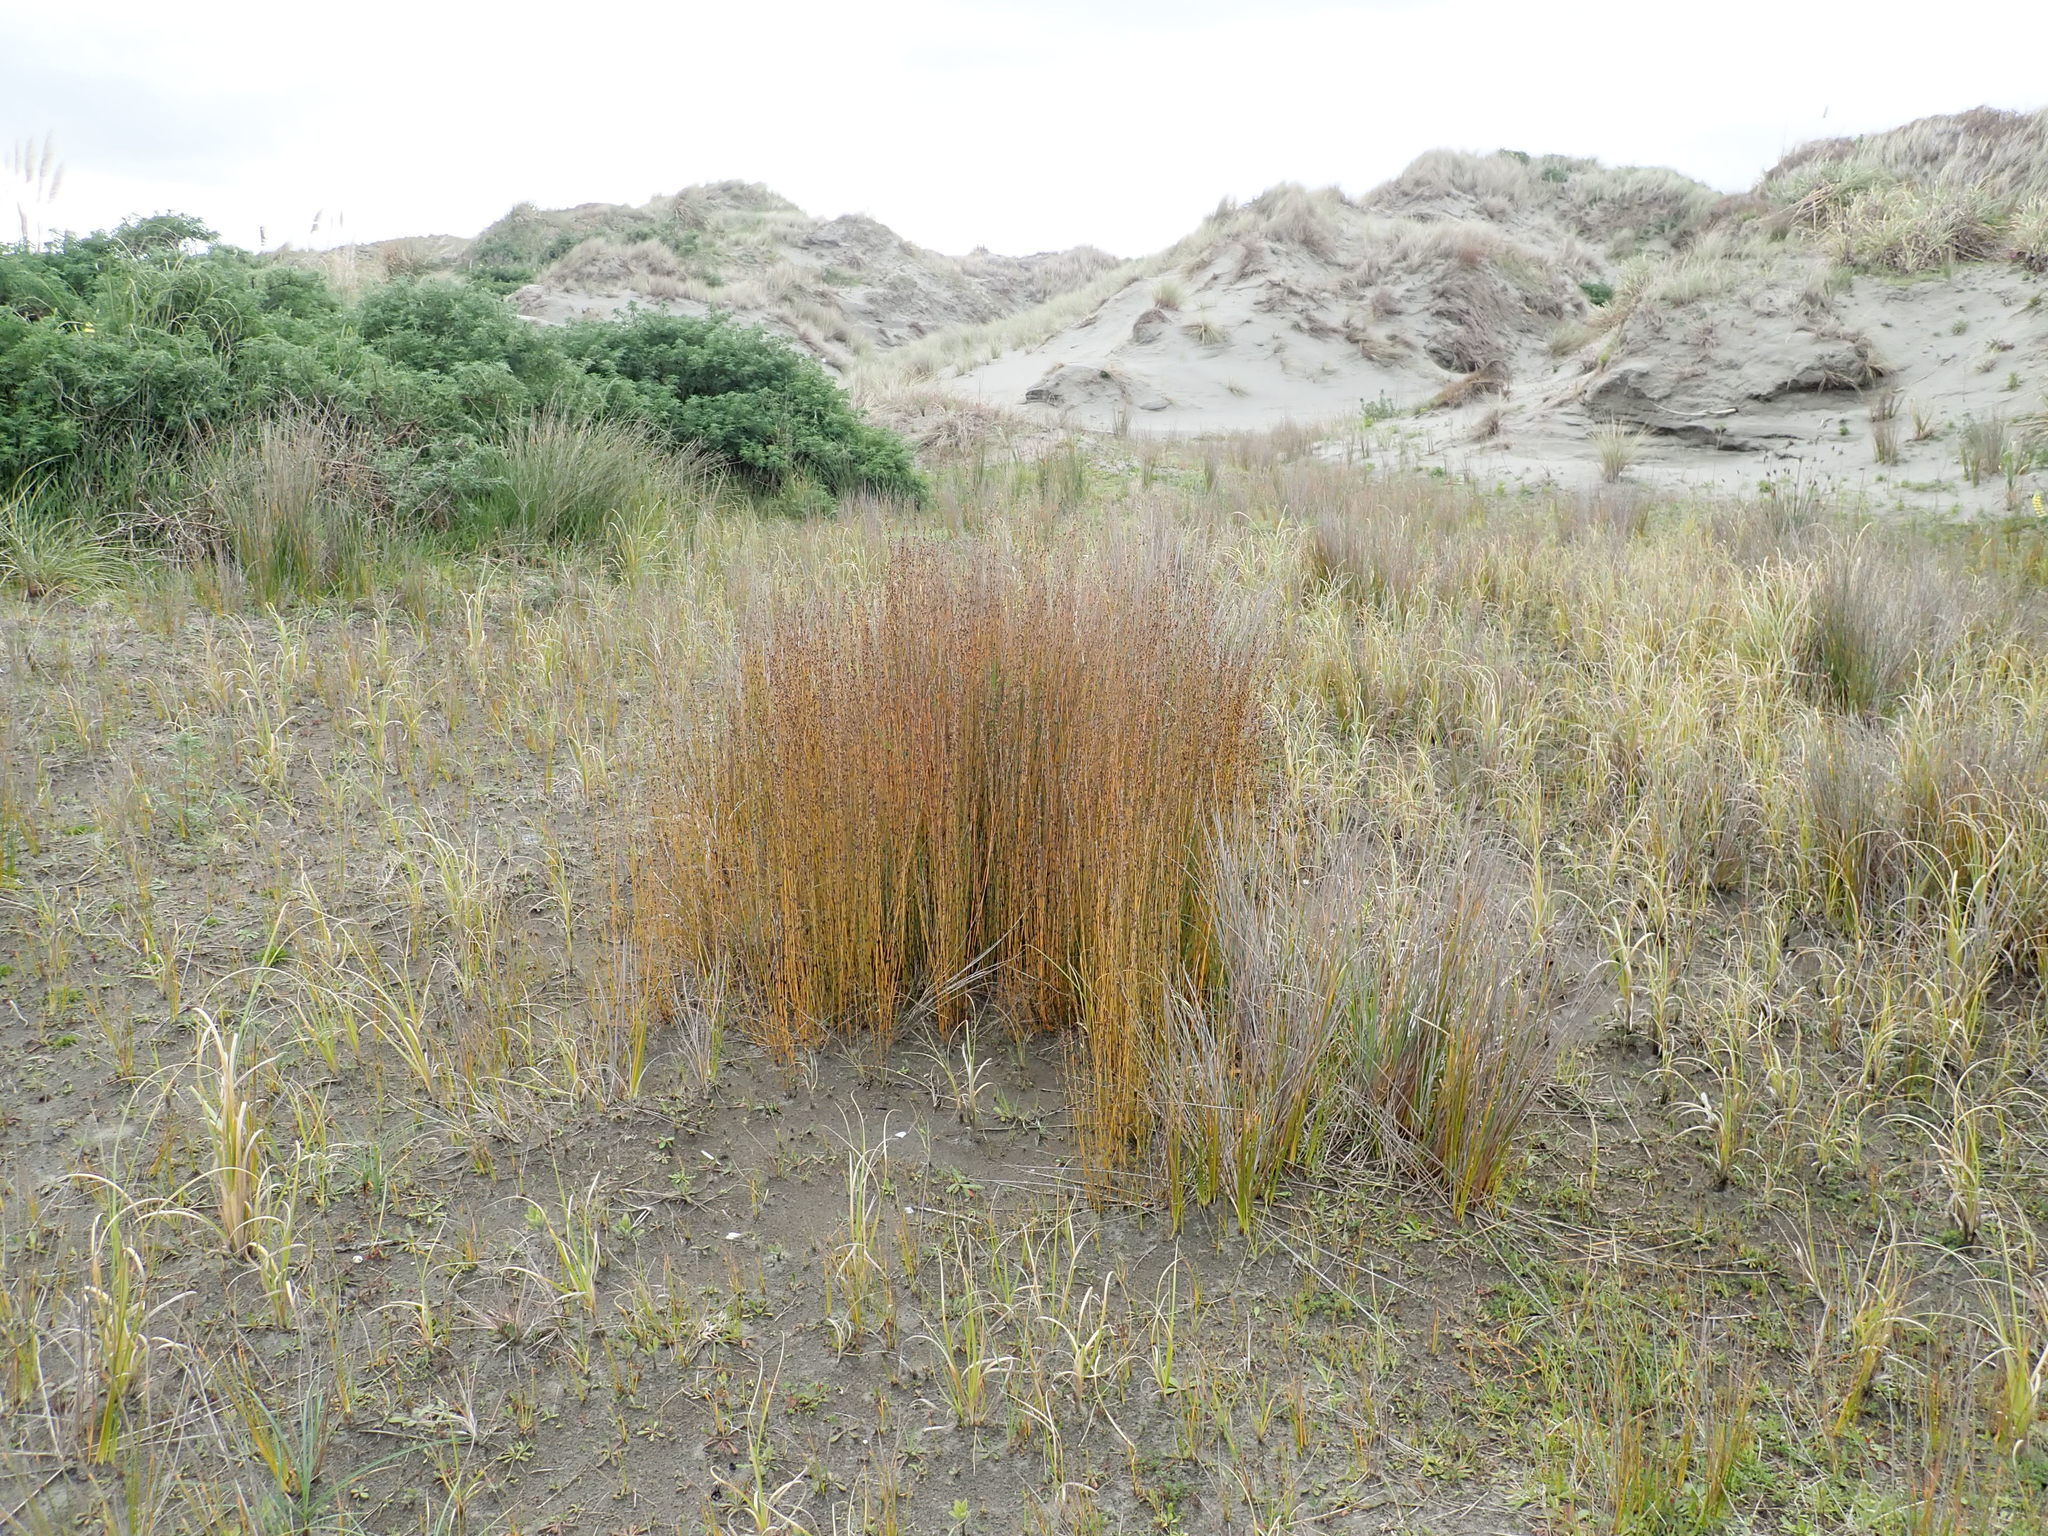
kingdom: Plantae
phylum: Tracheophyta
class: Liliopsida
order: Poales
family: Restionaceae
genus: Apodasmia
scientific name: Apodasmia similis
